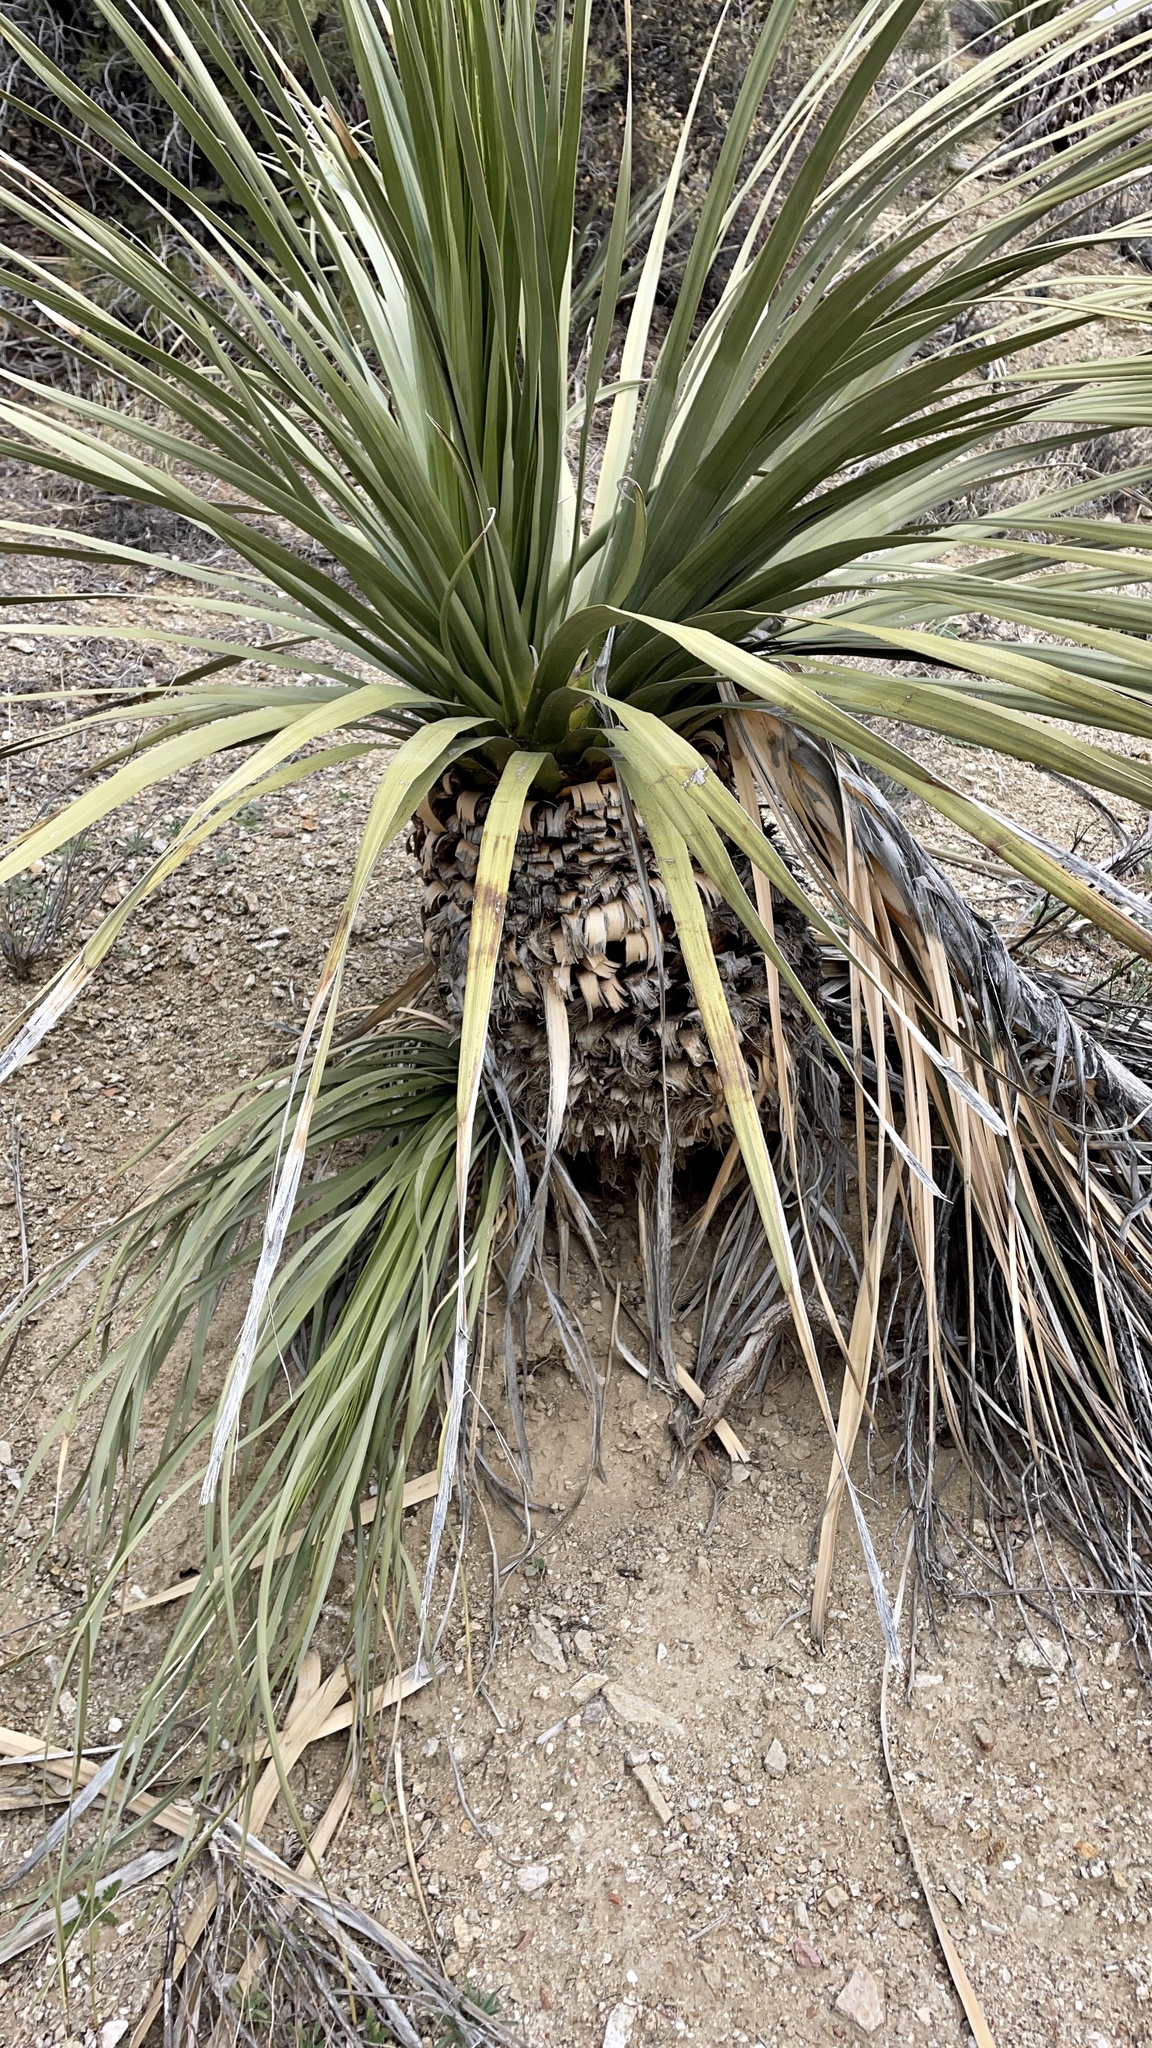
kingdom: Plantae
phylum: Tracheophyta
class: Liliopsida
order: Asparagales
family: Asparagaceae
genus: Nolina
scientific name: Nolina parryi
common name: Parry nolina
